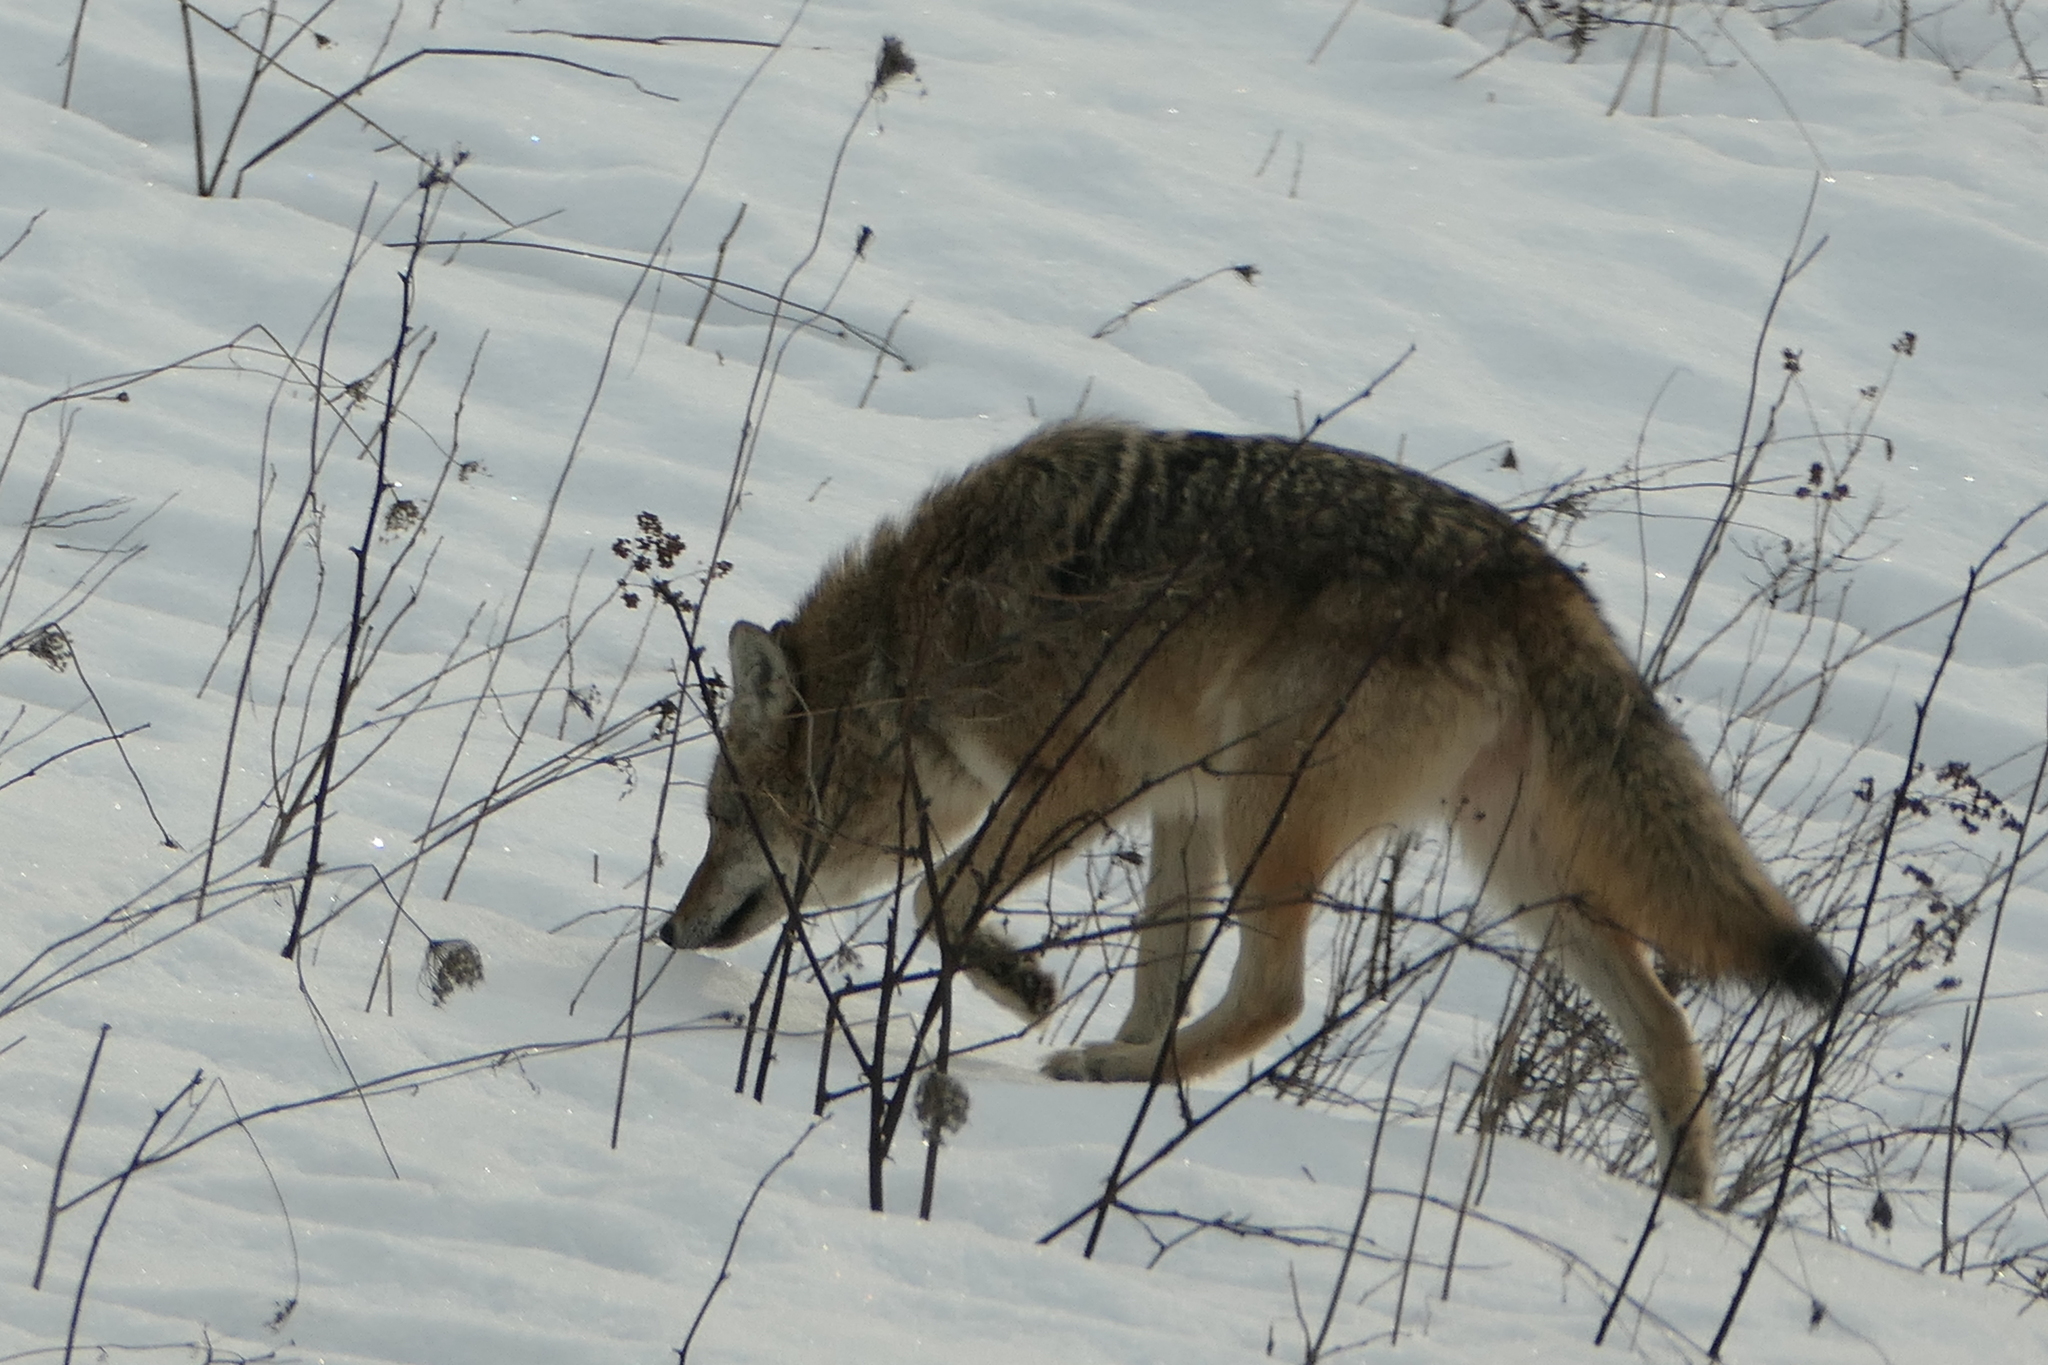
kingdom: Animalia
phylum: Chordata
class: Mammalia
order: Carnivora
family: Canidae
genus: Canis
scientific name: Canis latrans
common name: Coyote
